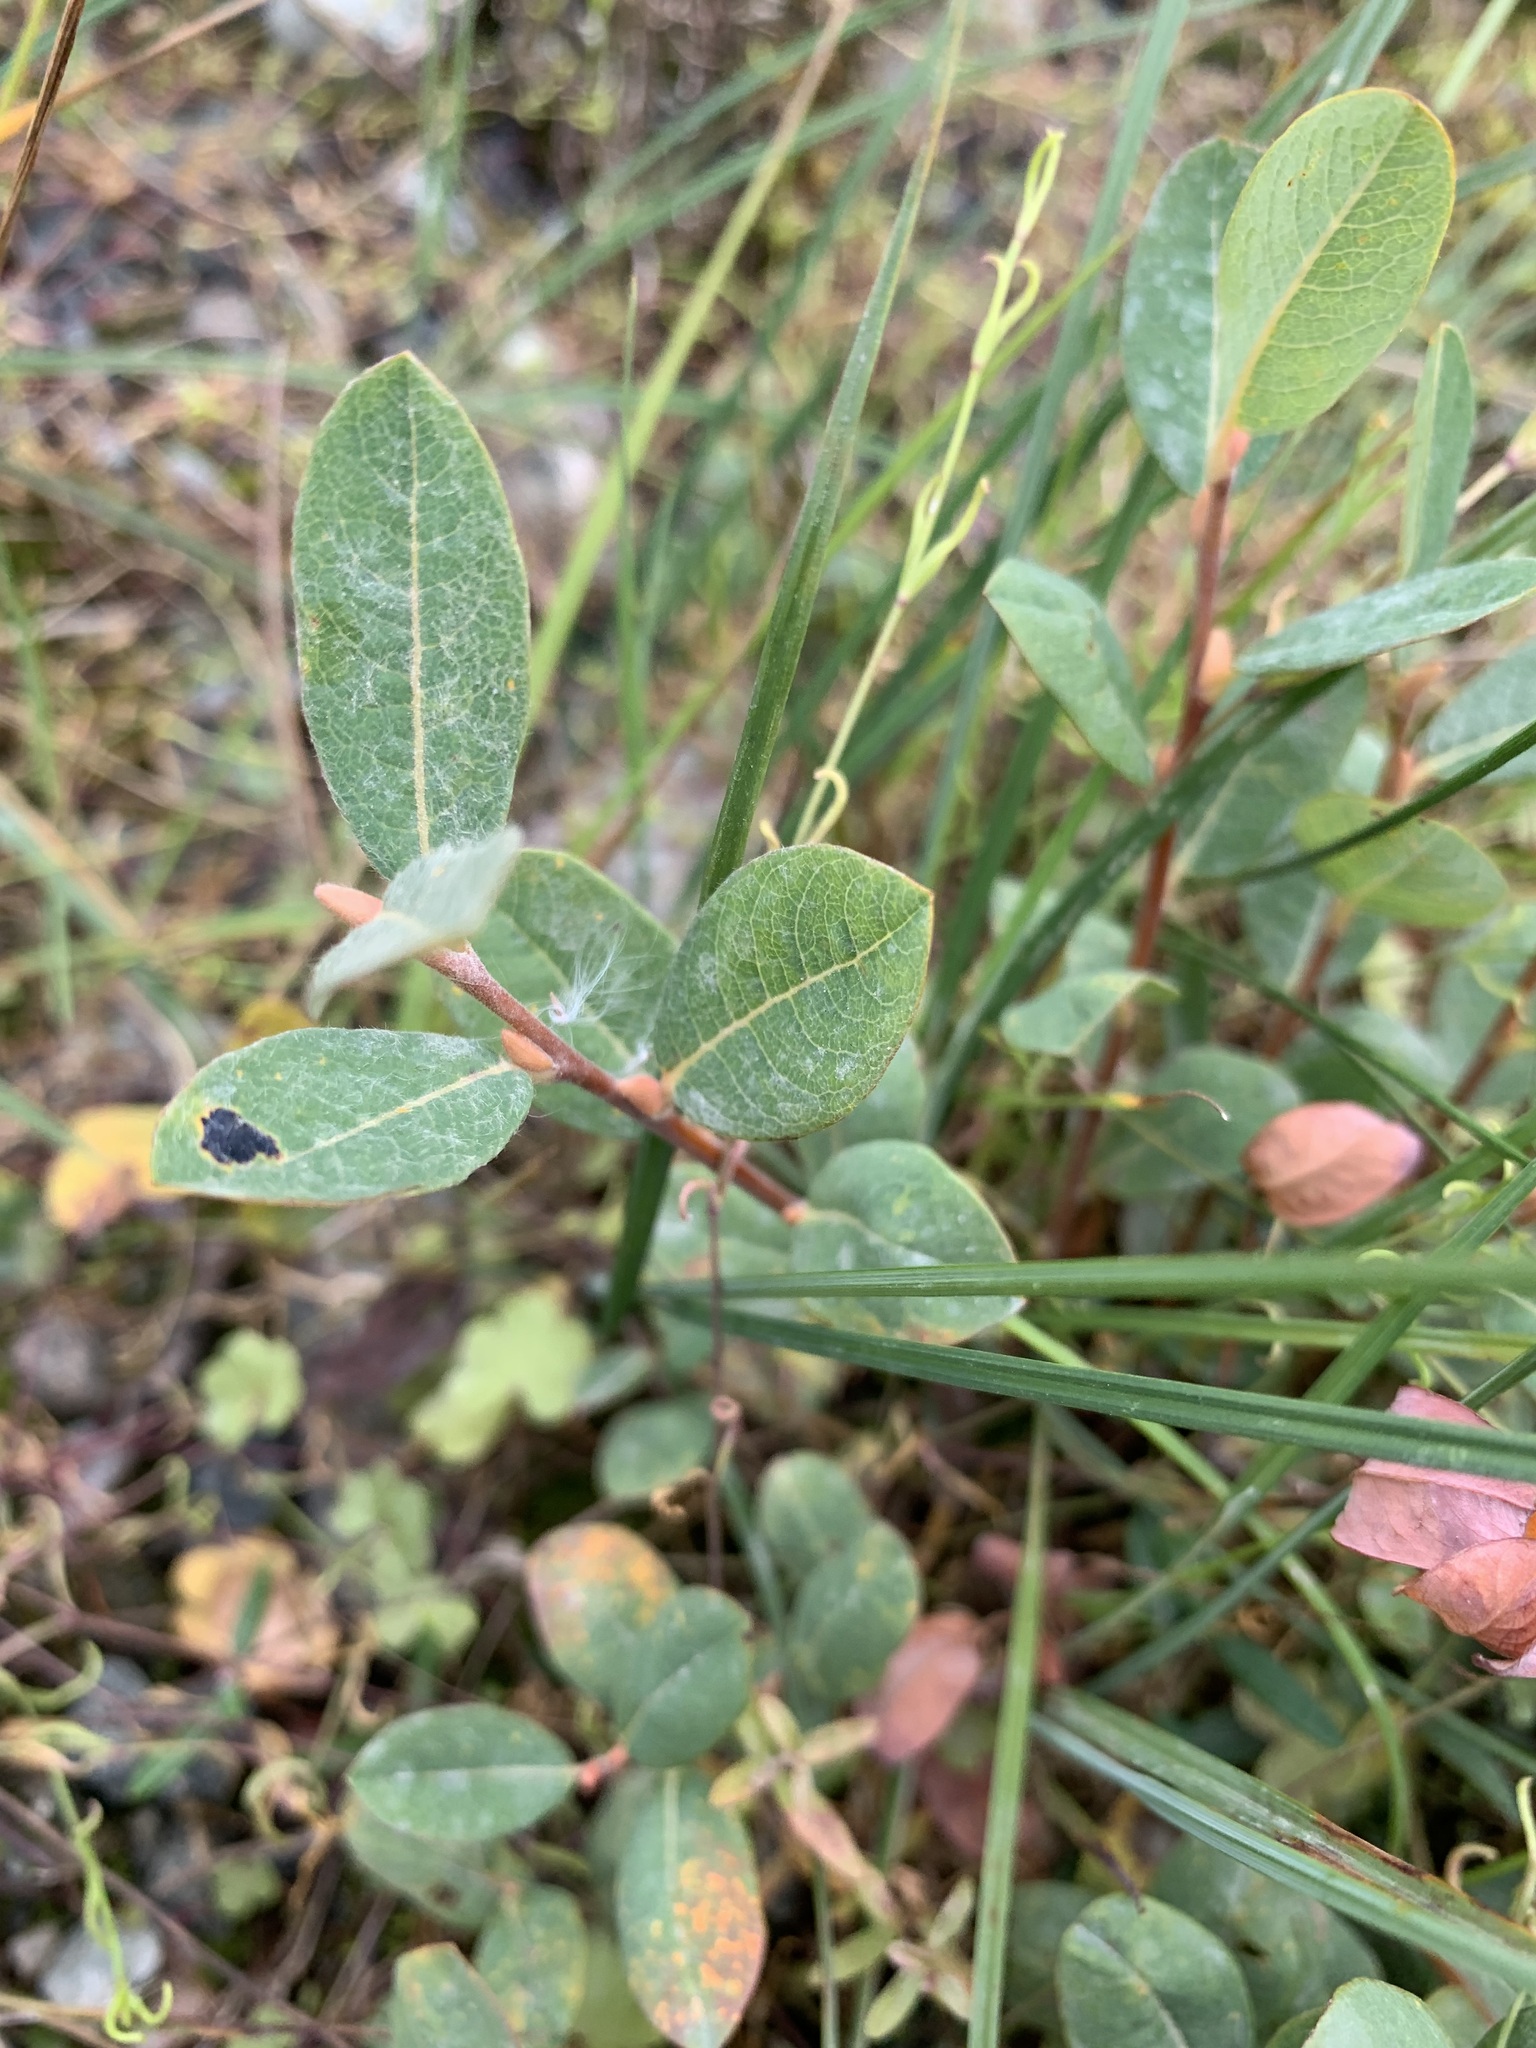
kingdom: Plantae
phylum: Tracheophyta
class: Magnoliopsida
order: Malpighiales
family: Salicaceae
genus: Salix
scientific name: Salix myrtilloides
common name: Myrtle-leaved willow
